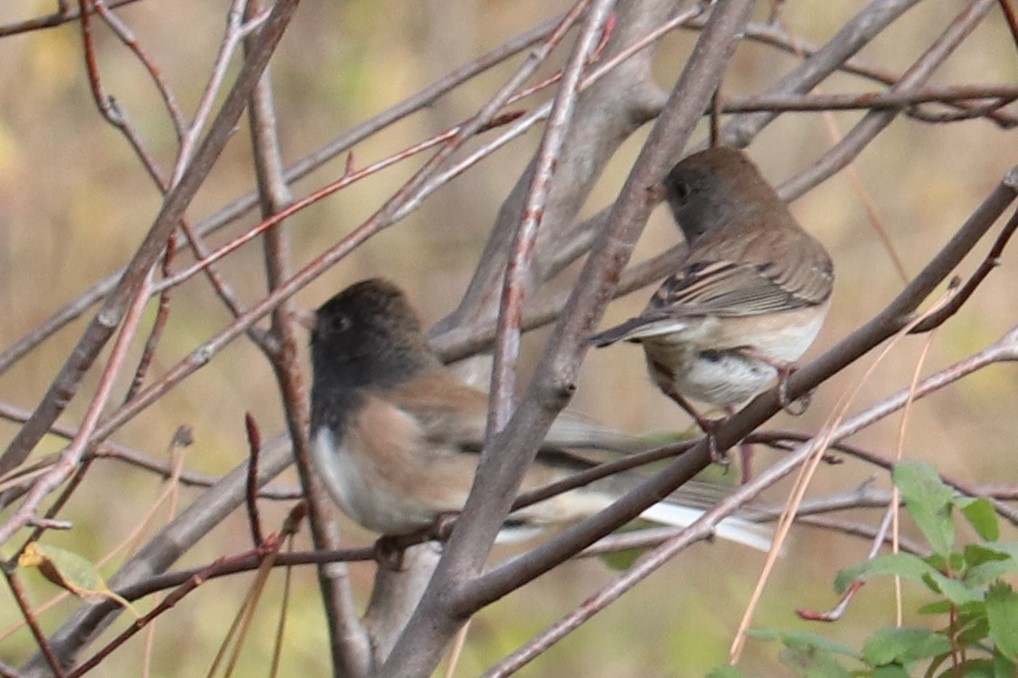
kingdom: Animalia
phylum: Chordata
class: Aves
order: Passeriformes
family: Passerellidae
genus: Junco
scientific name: Junco hyemalis
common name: Dark-eyed junco
